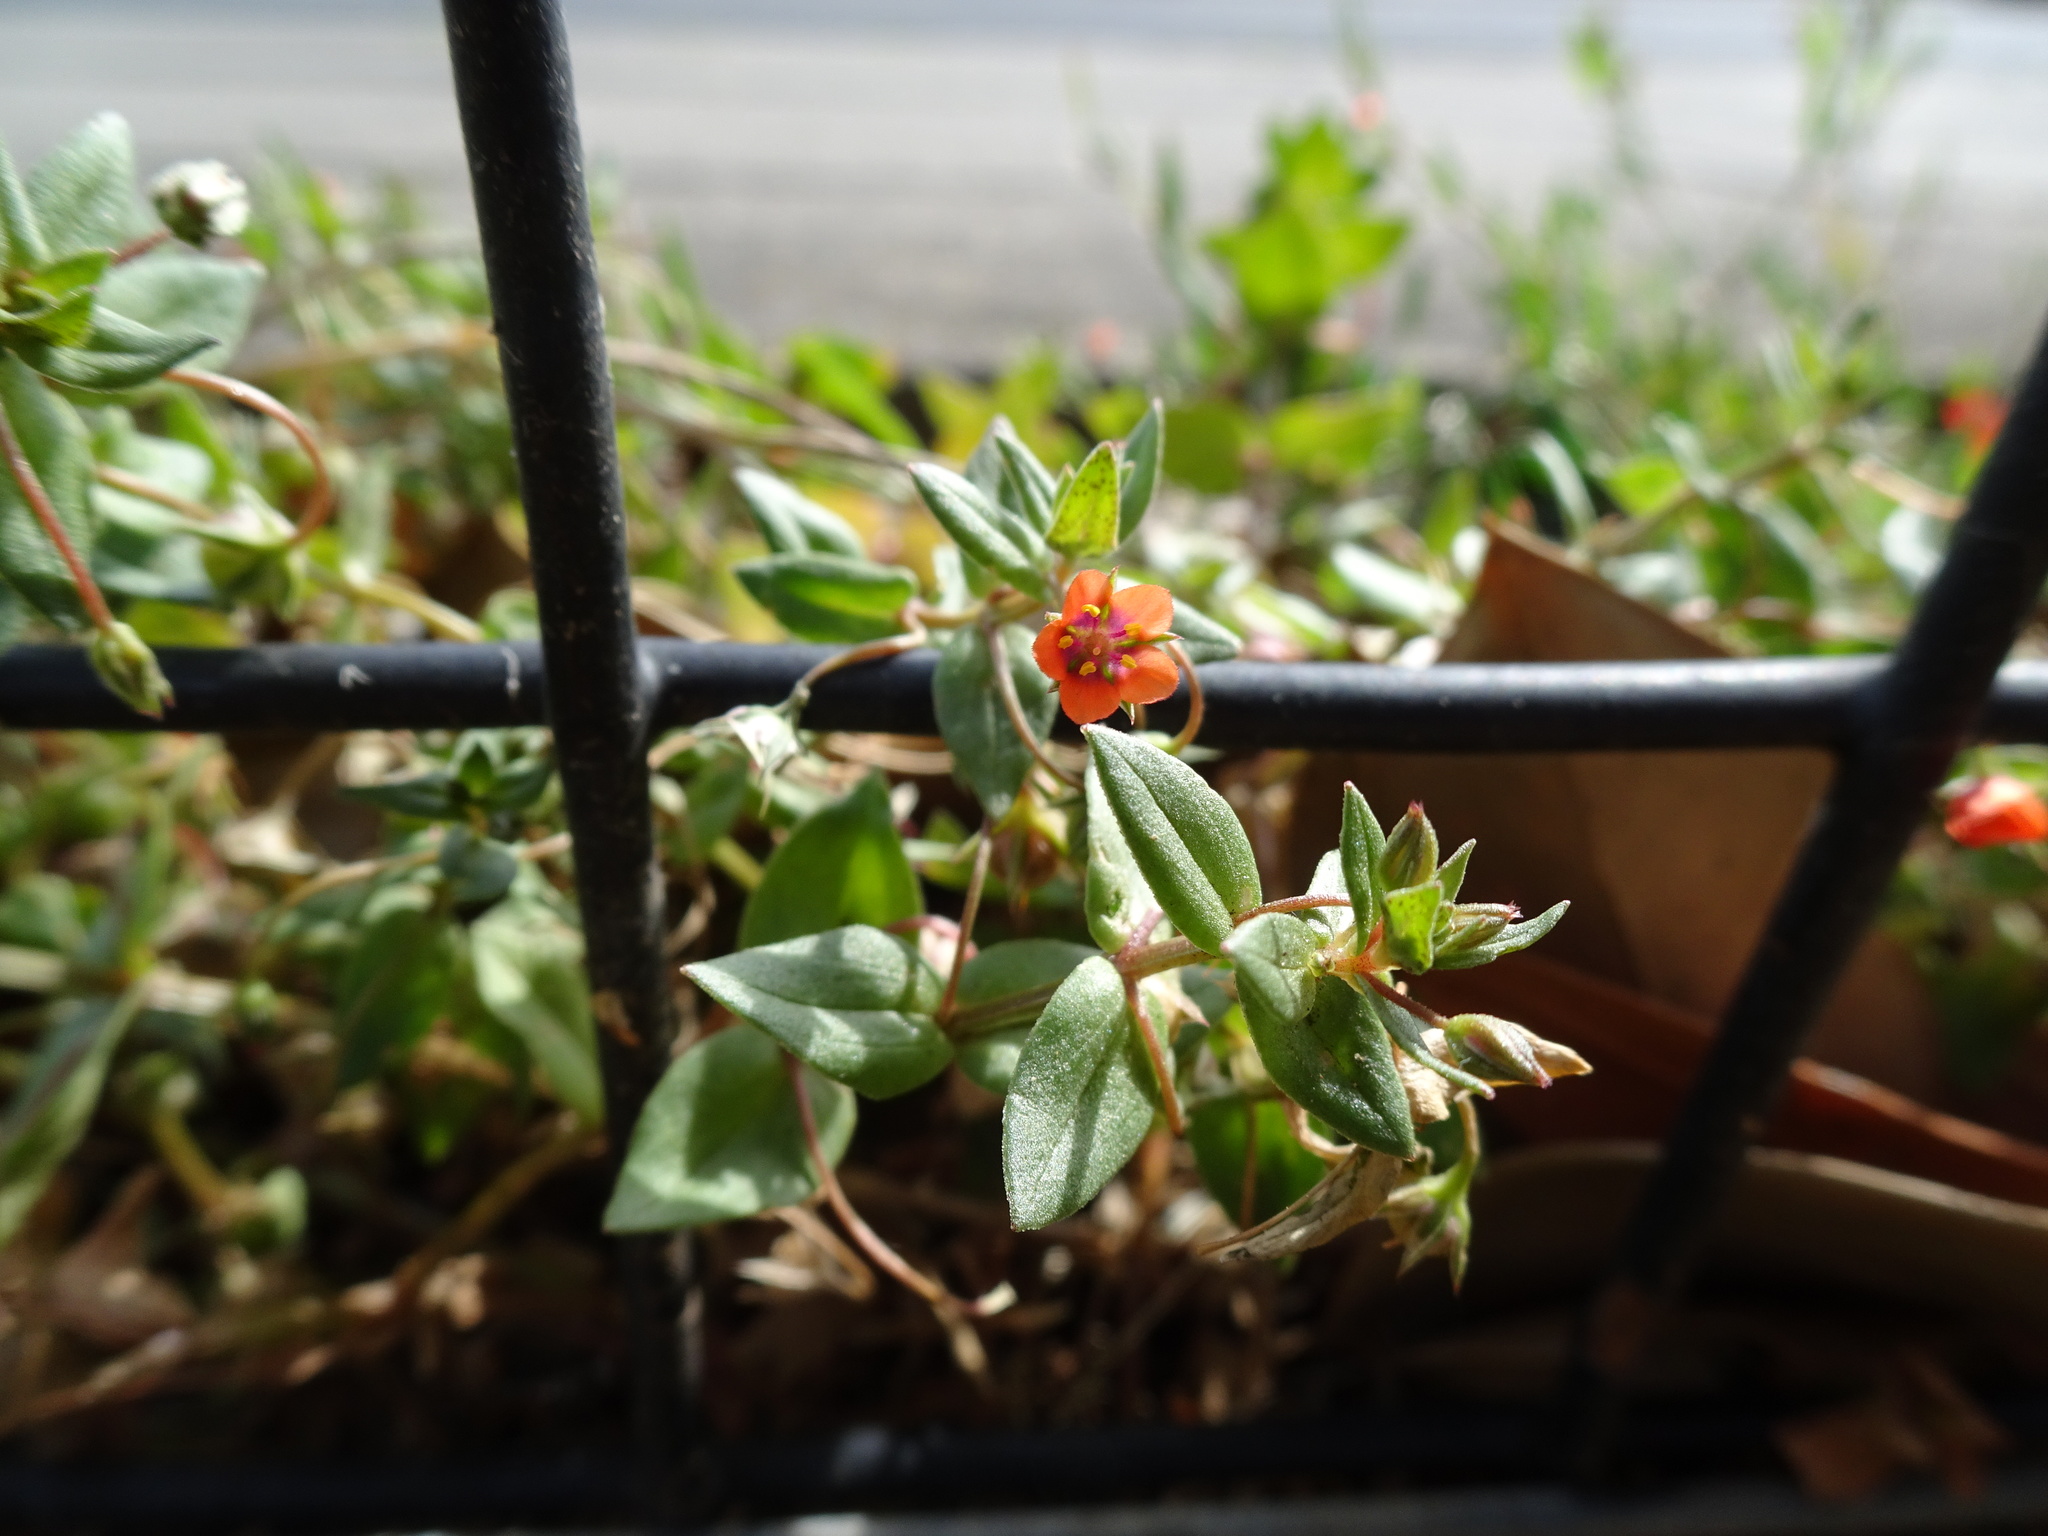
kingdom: Plantae
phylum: Tracheophyta
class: Magnoliopsida
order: Ericales
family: Primulaceae
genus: Lysimachia
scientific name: Lysimachia arvensis
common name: Scarlet pimpernel
